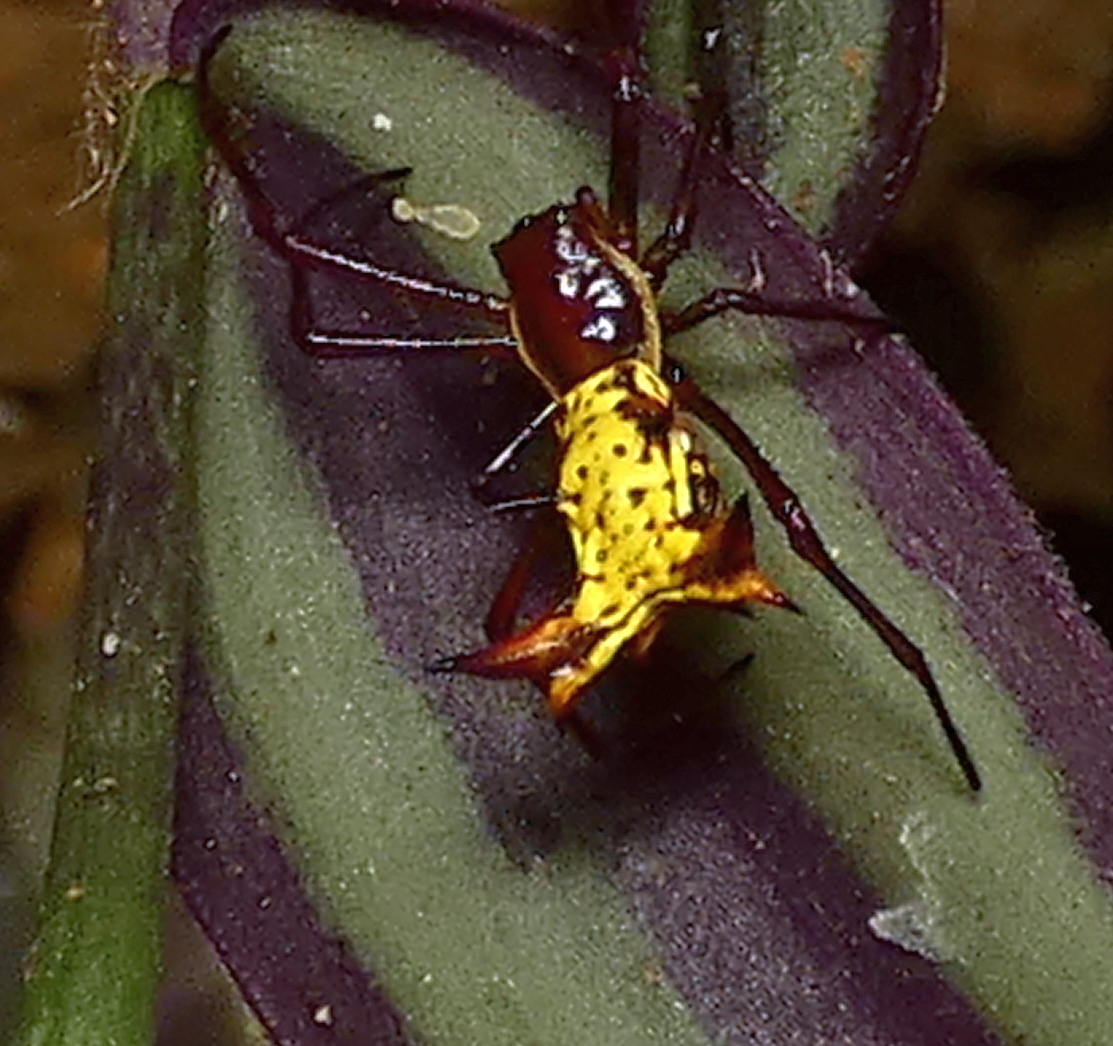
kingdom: Animalia
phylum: Arthropoda
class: Arachnida
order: Araneae
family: Araneidae
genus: Micrathena
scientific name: Micrathena fissispina
